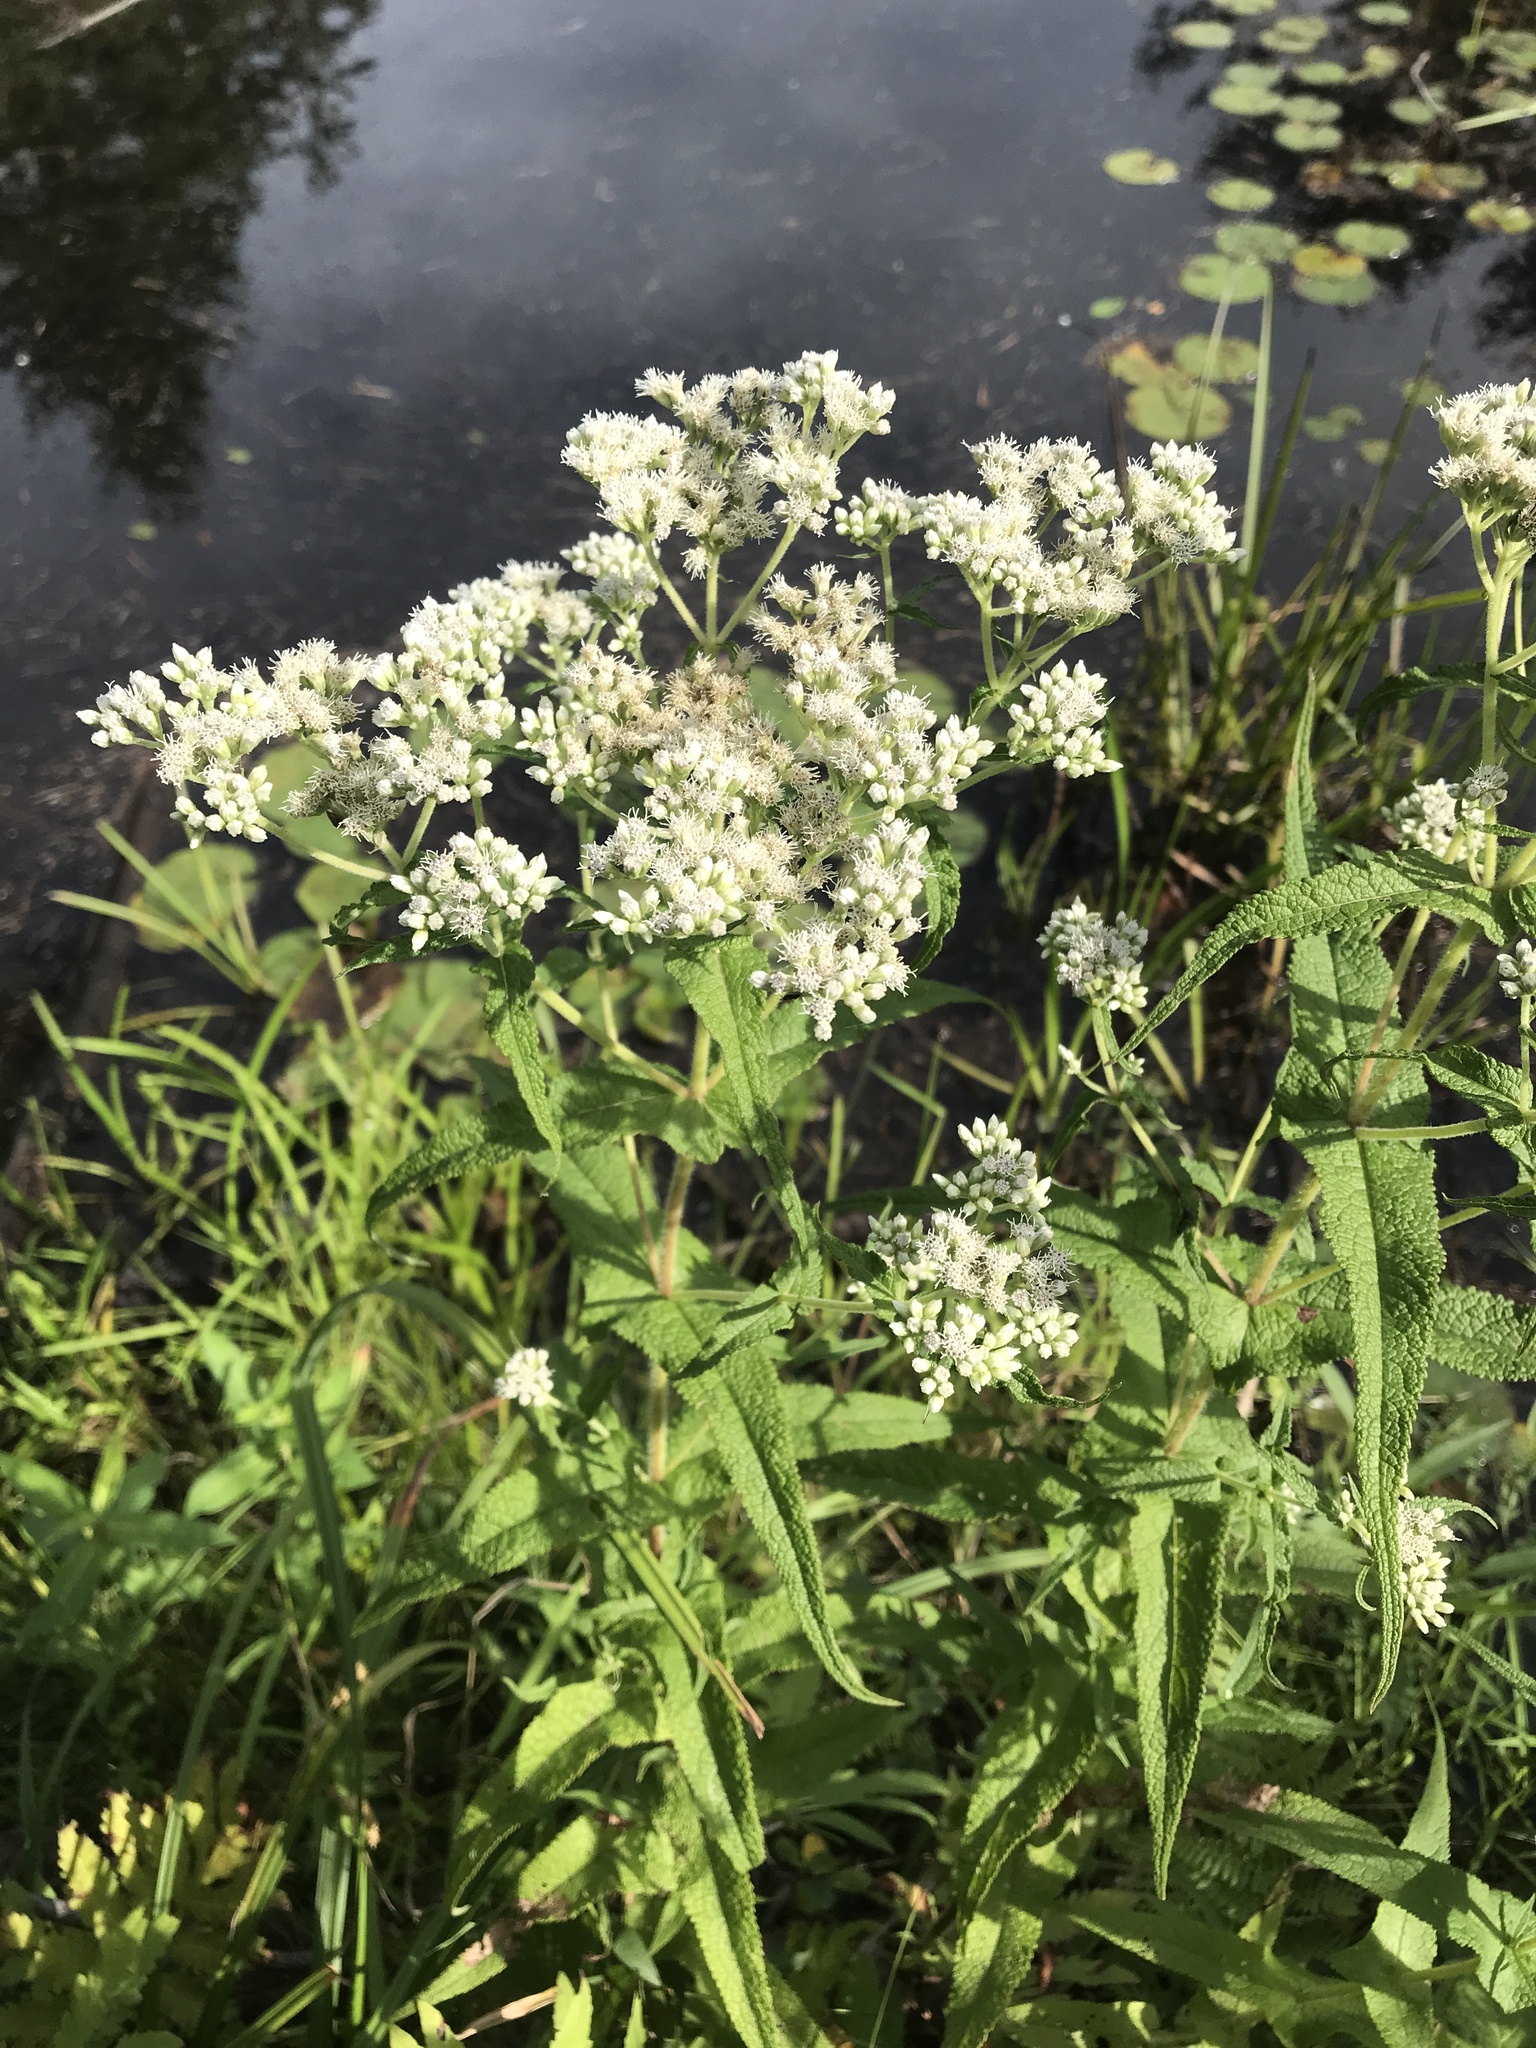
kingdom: Plantae
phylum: Tracheophyta
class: Magnoliopsida
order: Asterales
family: Asteraceae
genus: Eupatorium
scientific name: Eupatorium perfoliatum
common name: Boneset
